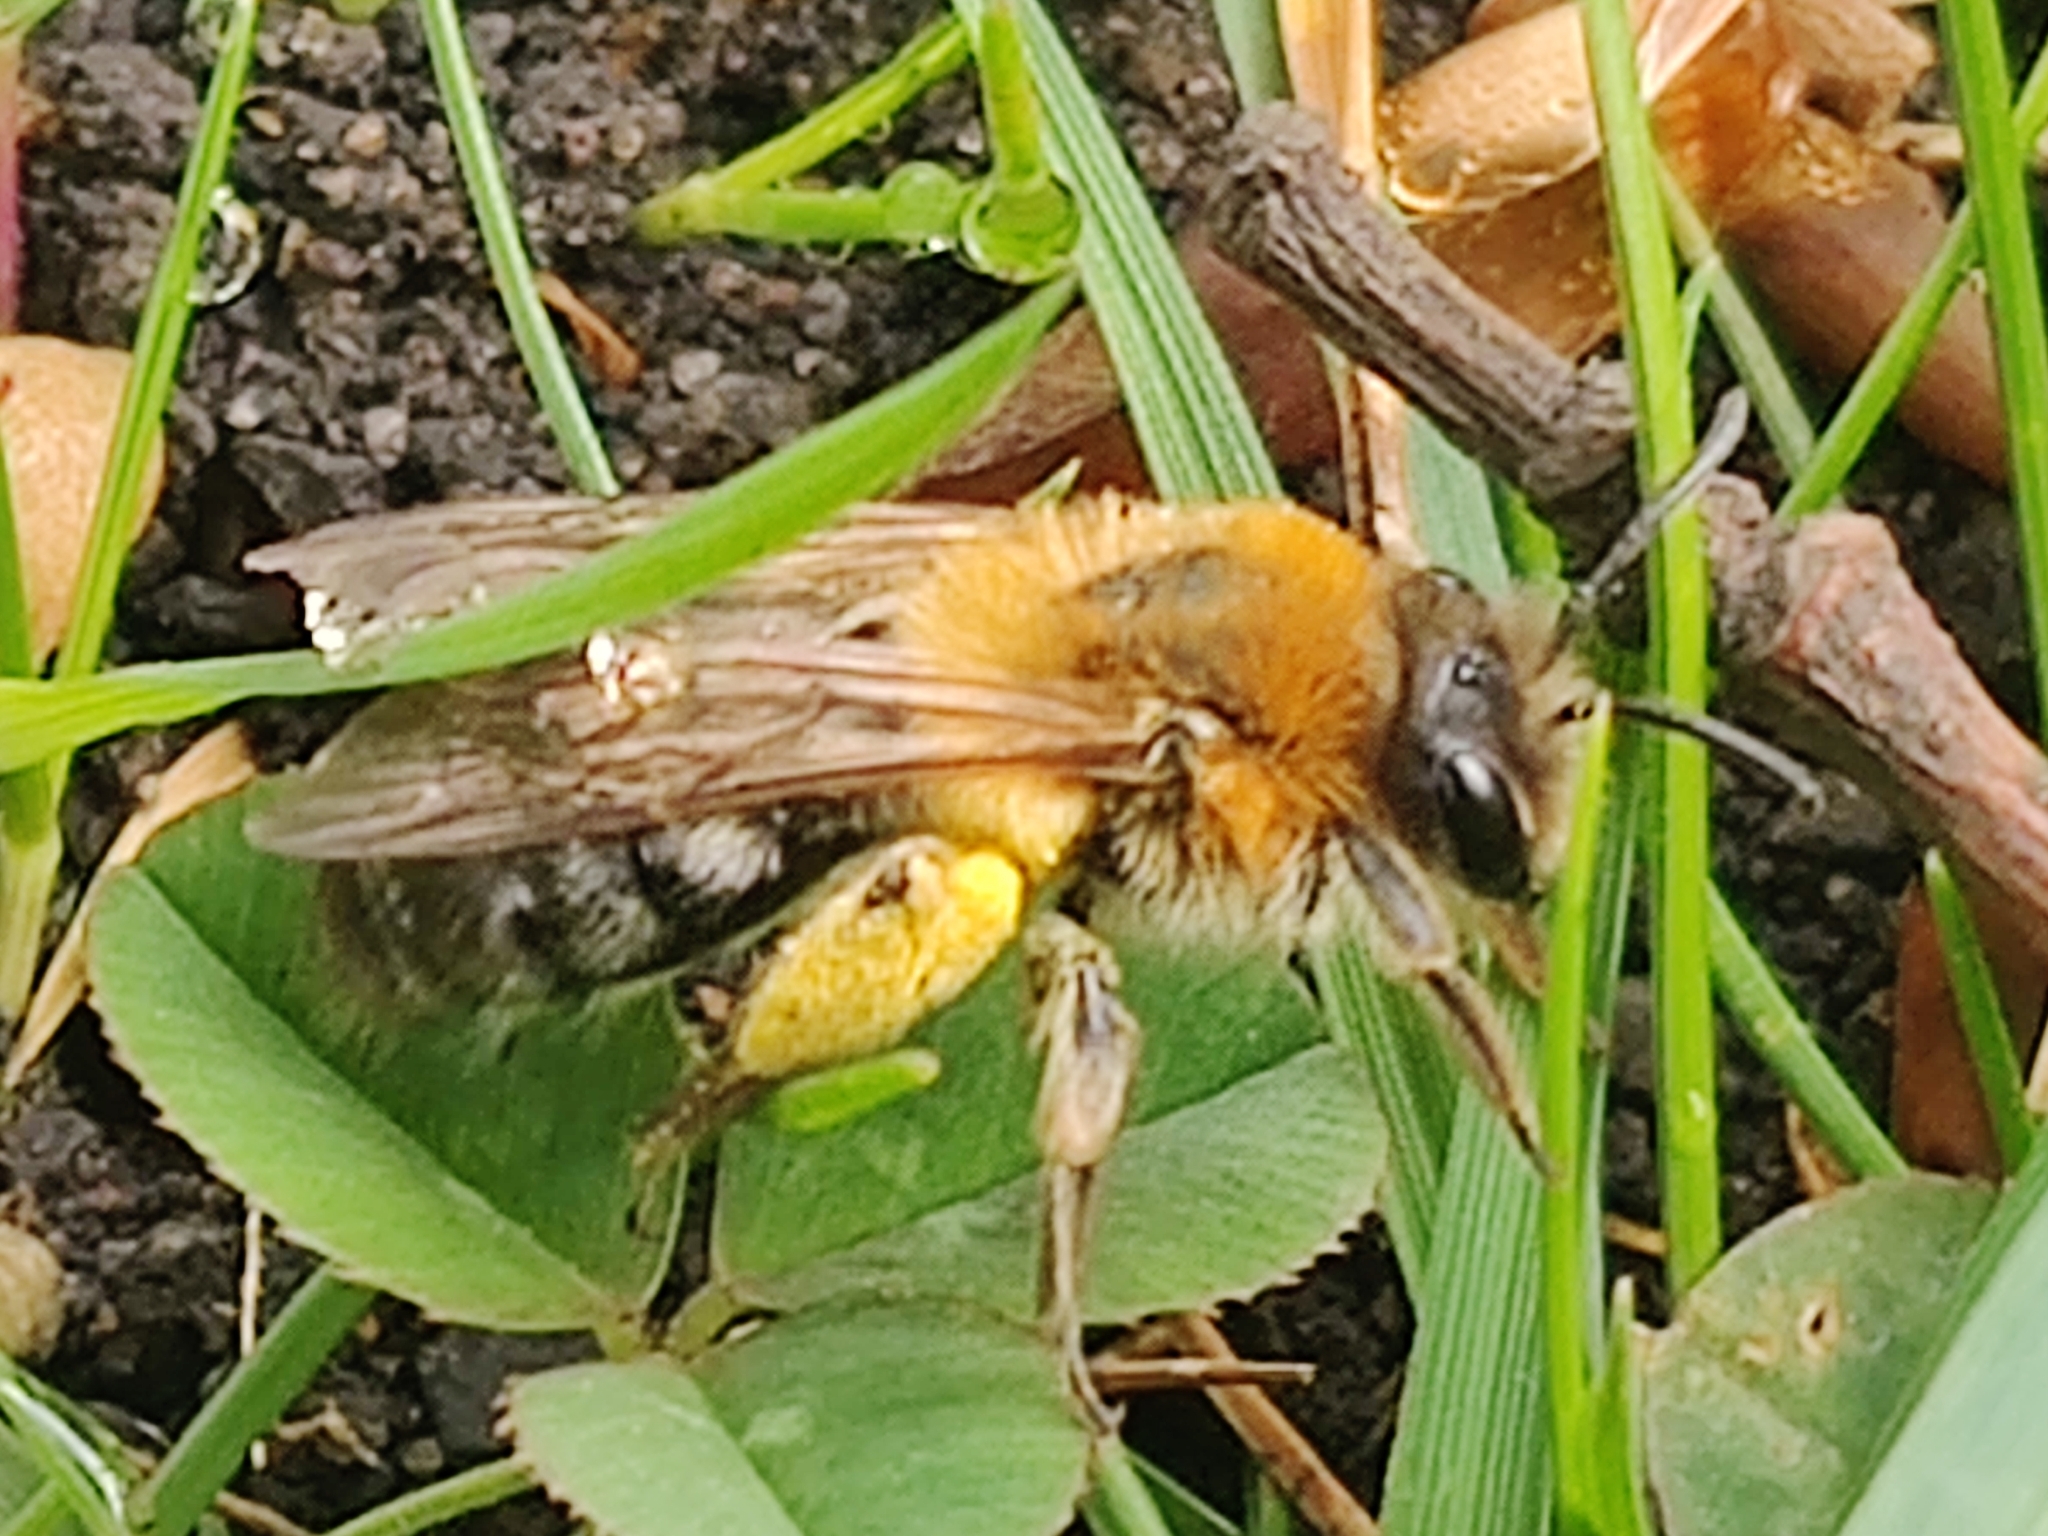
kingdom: Animalia
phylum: Arthropoda
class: Insecta
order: Hymenoptera
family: Andrenidae
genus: Andrena
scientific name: Andrena nitida
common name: Grey-patched mining bee
